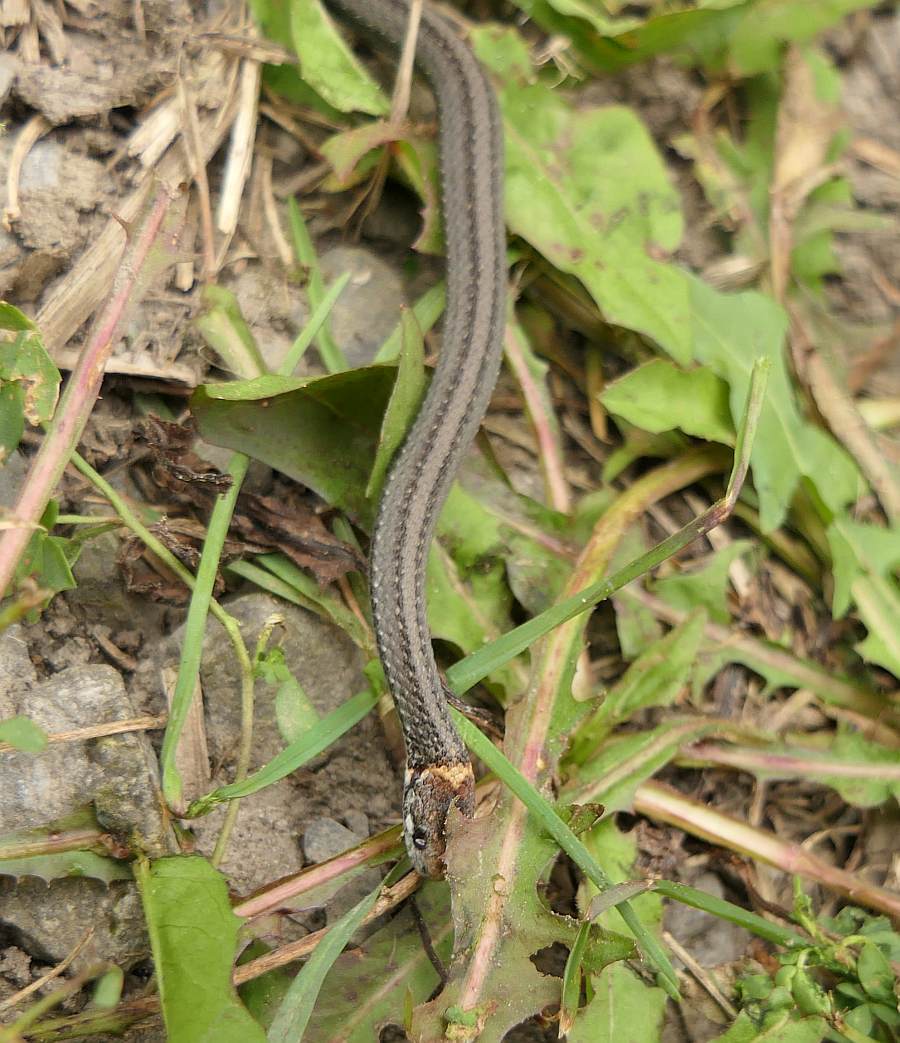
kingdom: Animalia
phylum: Chordata
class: Squamata
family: Colubridae
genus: Storeria
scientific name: Storeria occipitomaculata
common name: Redbelly snake
